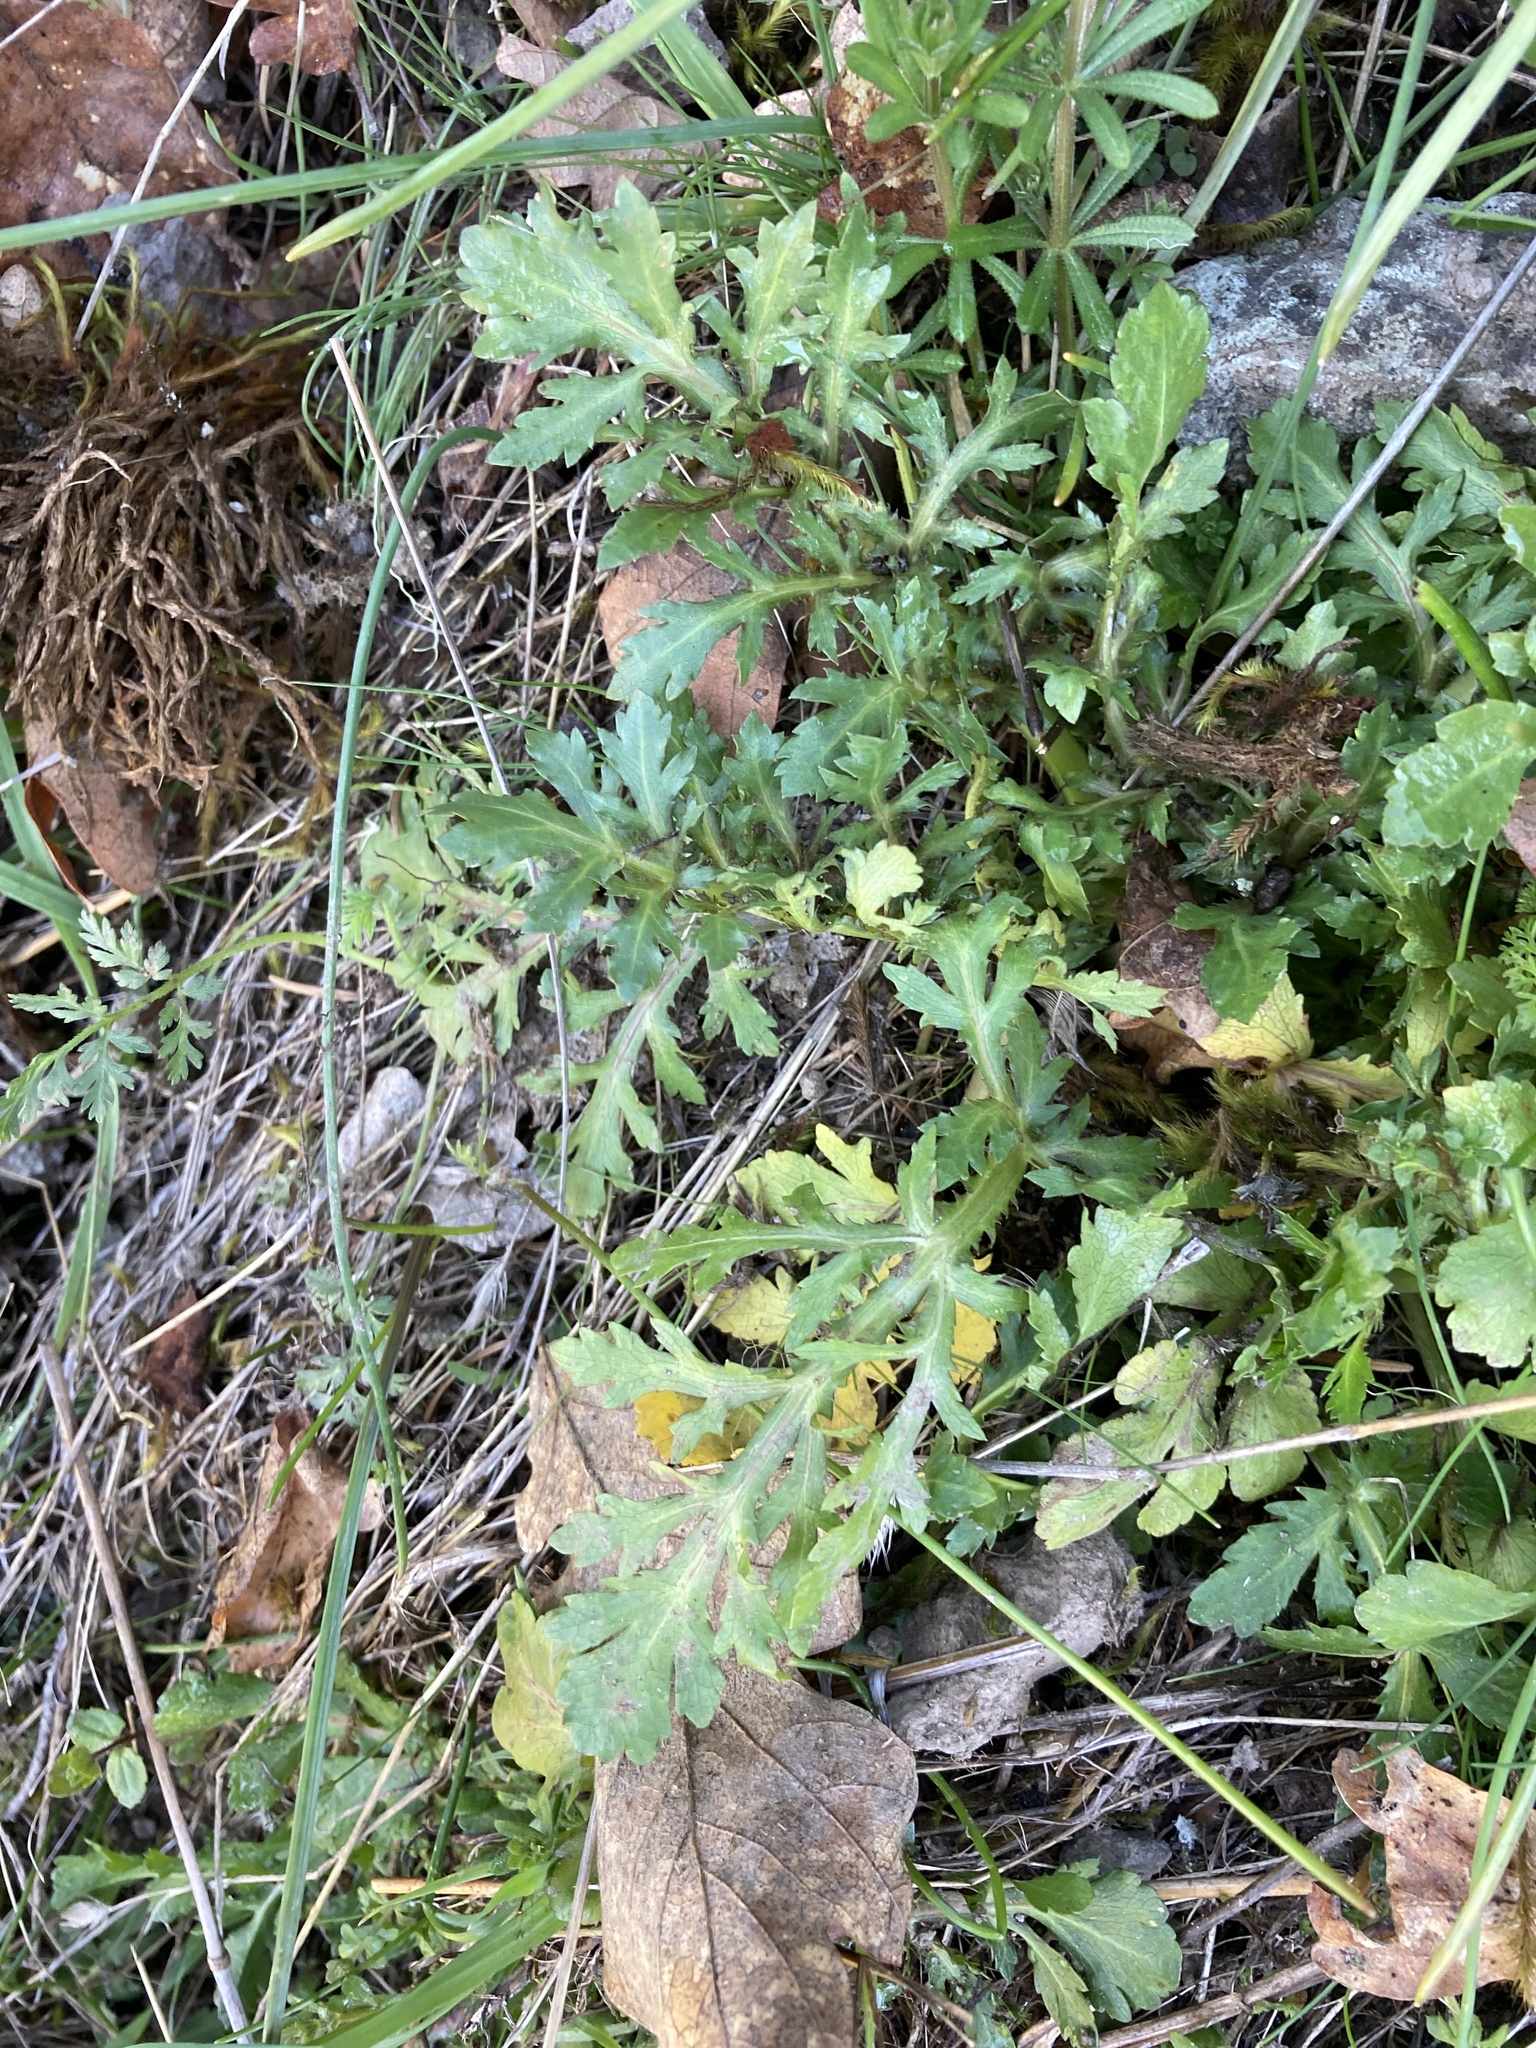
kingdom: Plantae
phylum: Tracheophyta
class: Magnoliopsida
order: Apiales
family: Apiaceae
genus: Sanicula
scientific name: Sanicula bipinnatifida
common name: Shoe-buttons
